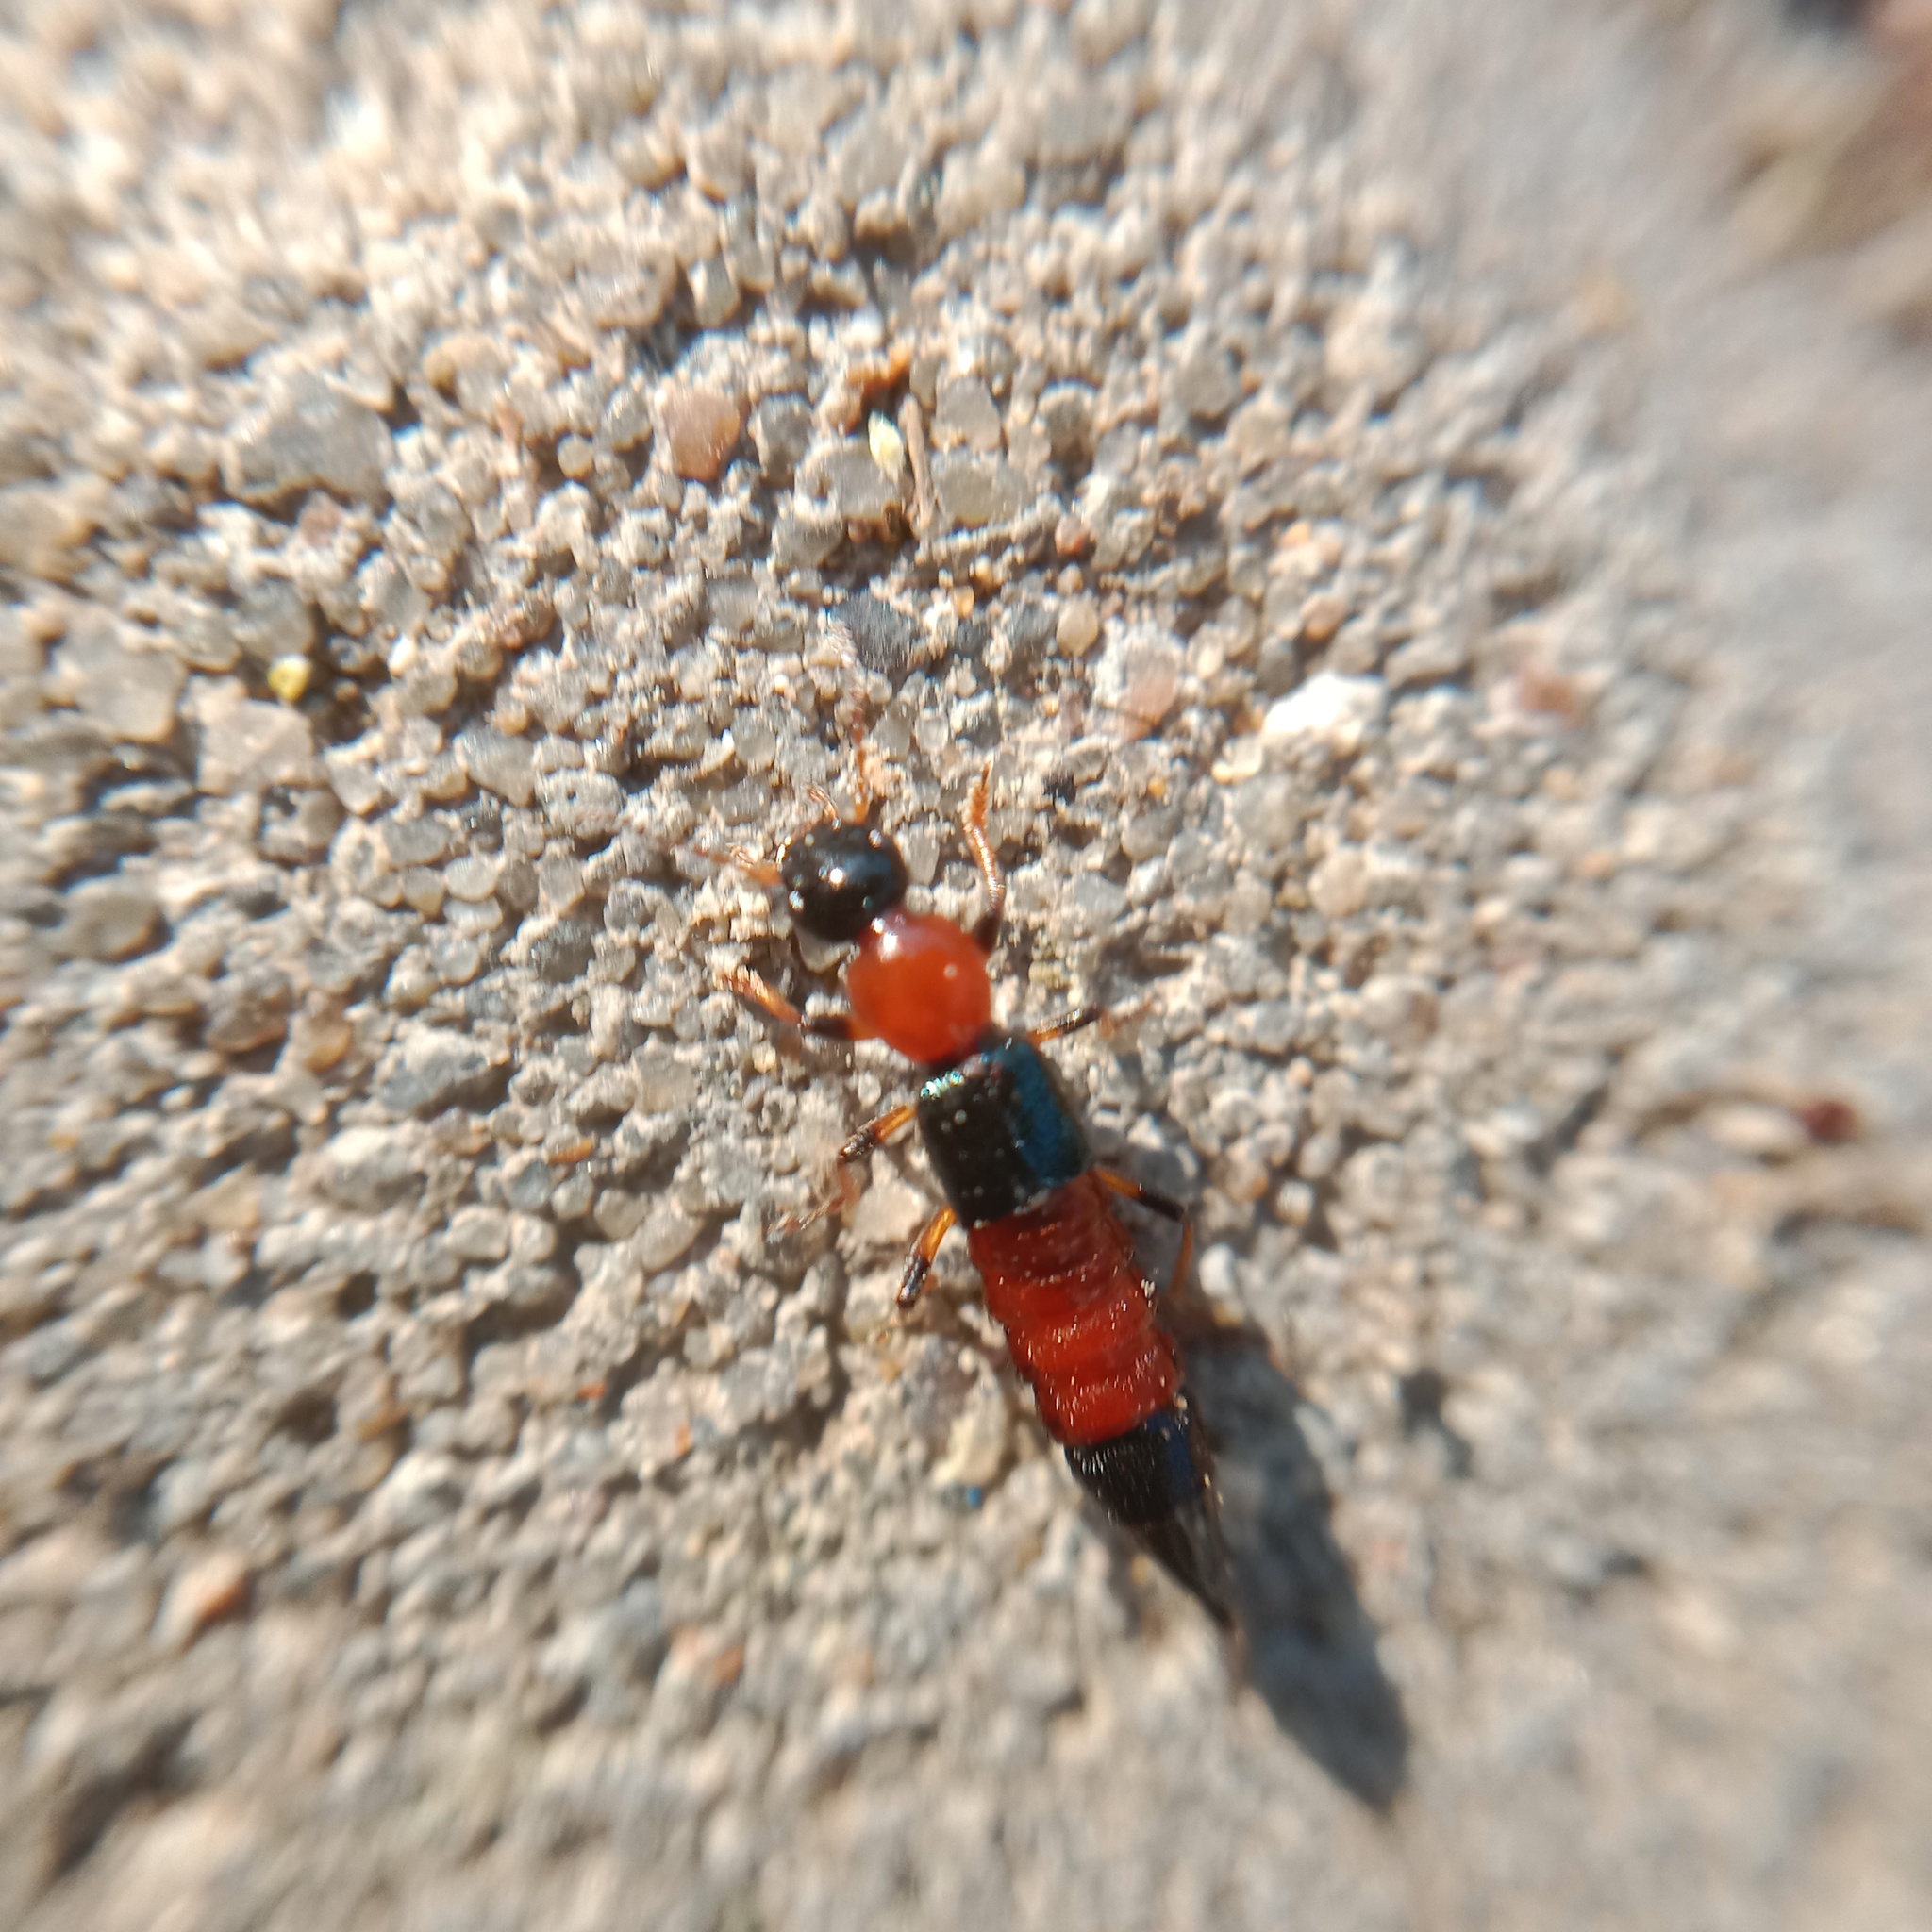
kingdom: Animalia
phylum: Arthropoda
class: Insecta
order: Coleoptera
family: Staphylinidae
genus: Paederus
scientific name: Paederus littoralis
